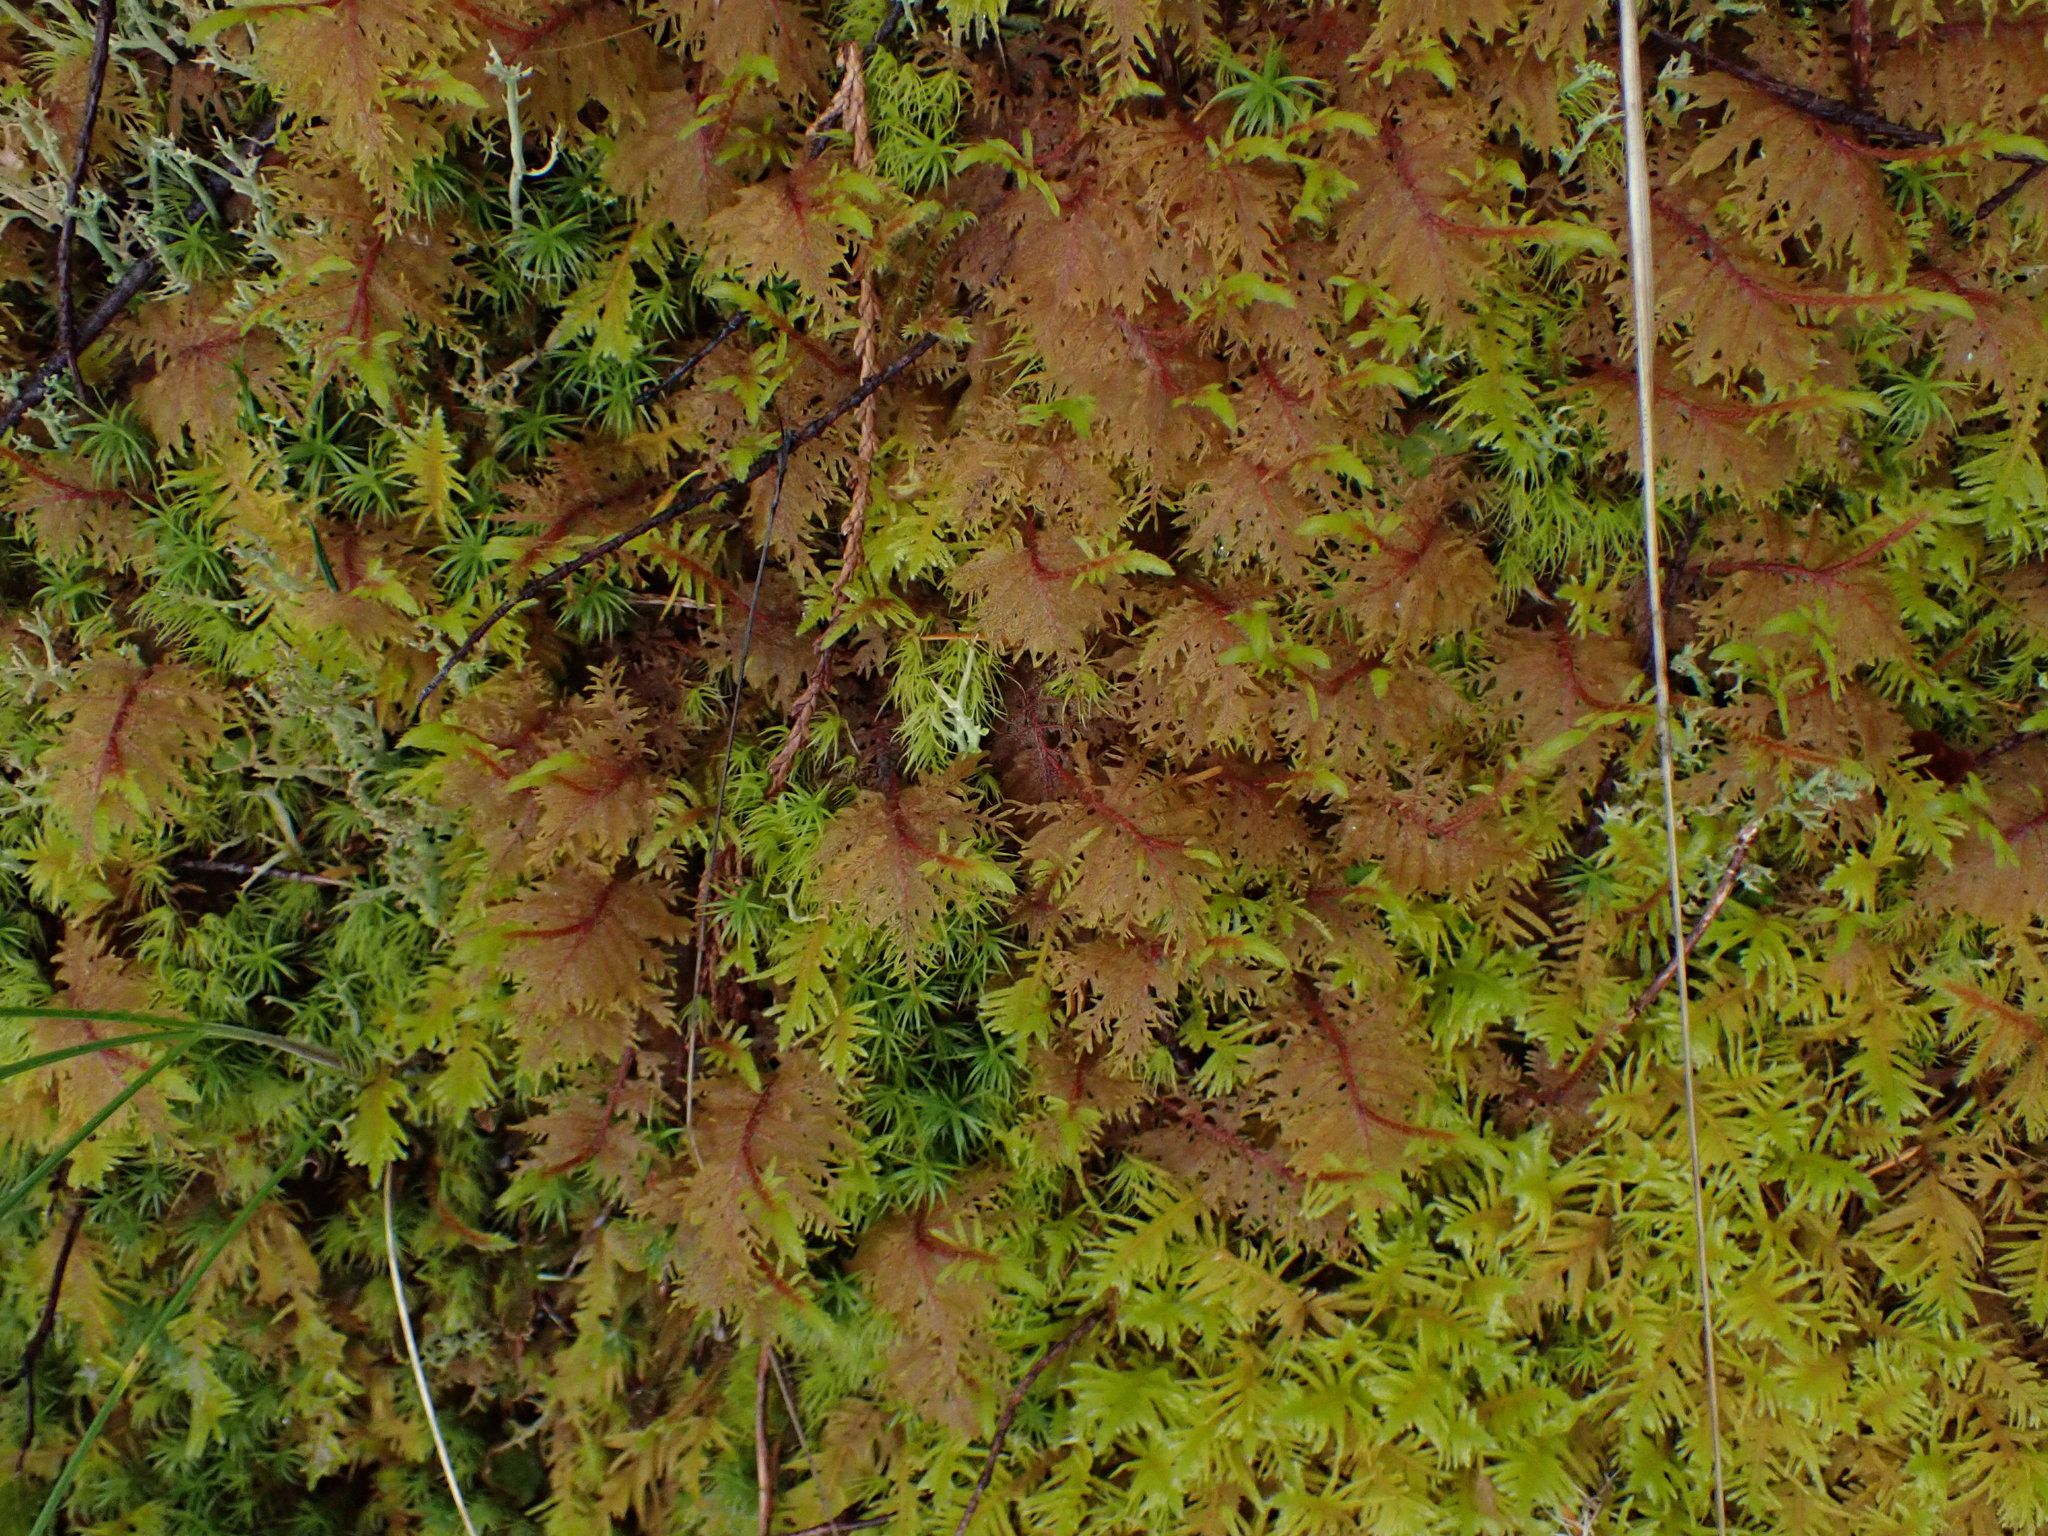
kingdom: Plantae
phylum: Bryophyta
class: Bryopsida
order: Hypnales
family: Hylocomiaceae
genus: Hylocomium
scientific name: Hylocomium splendens
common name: Stairstep moss
